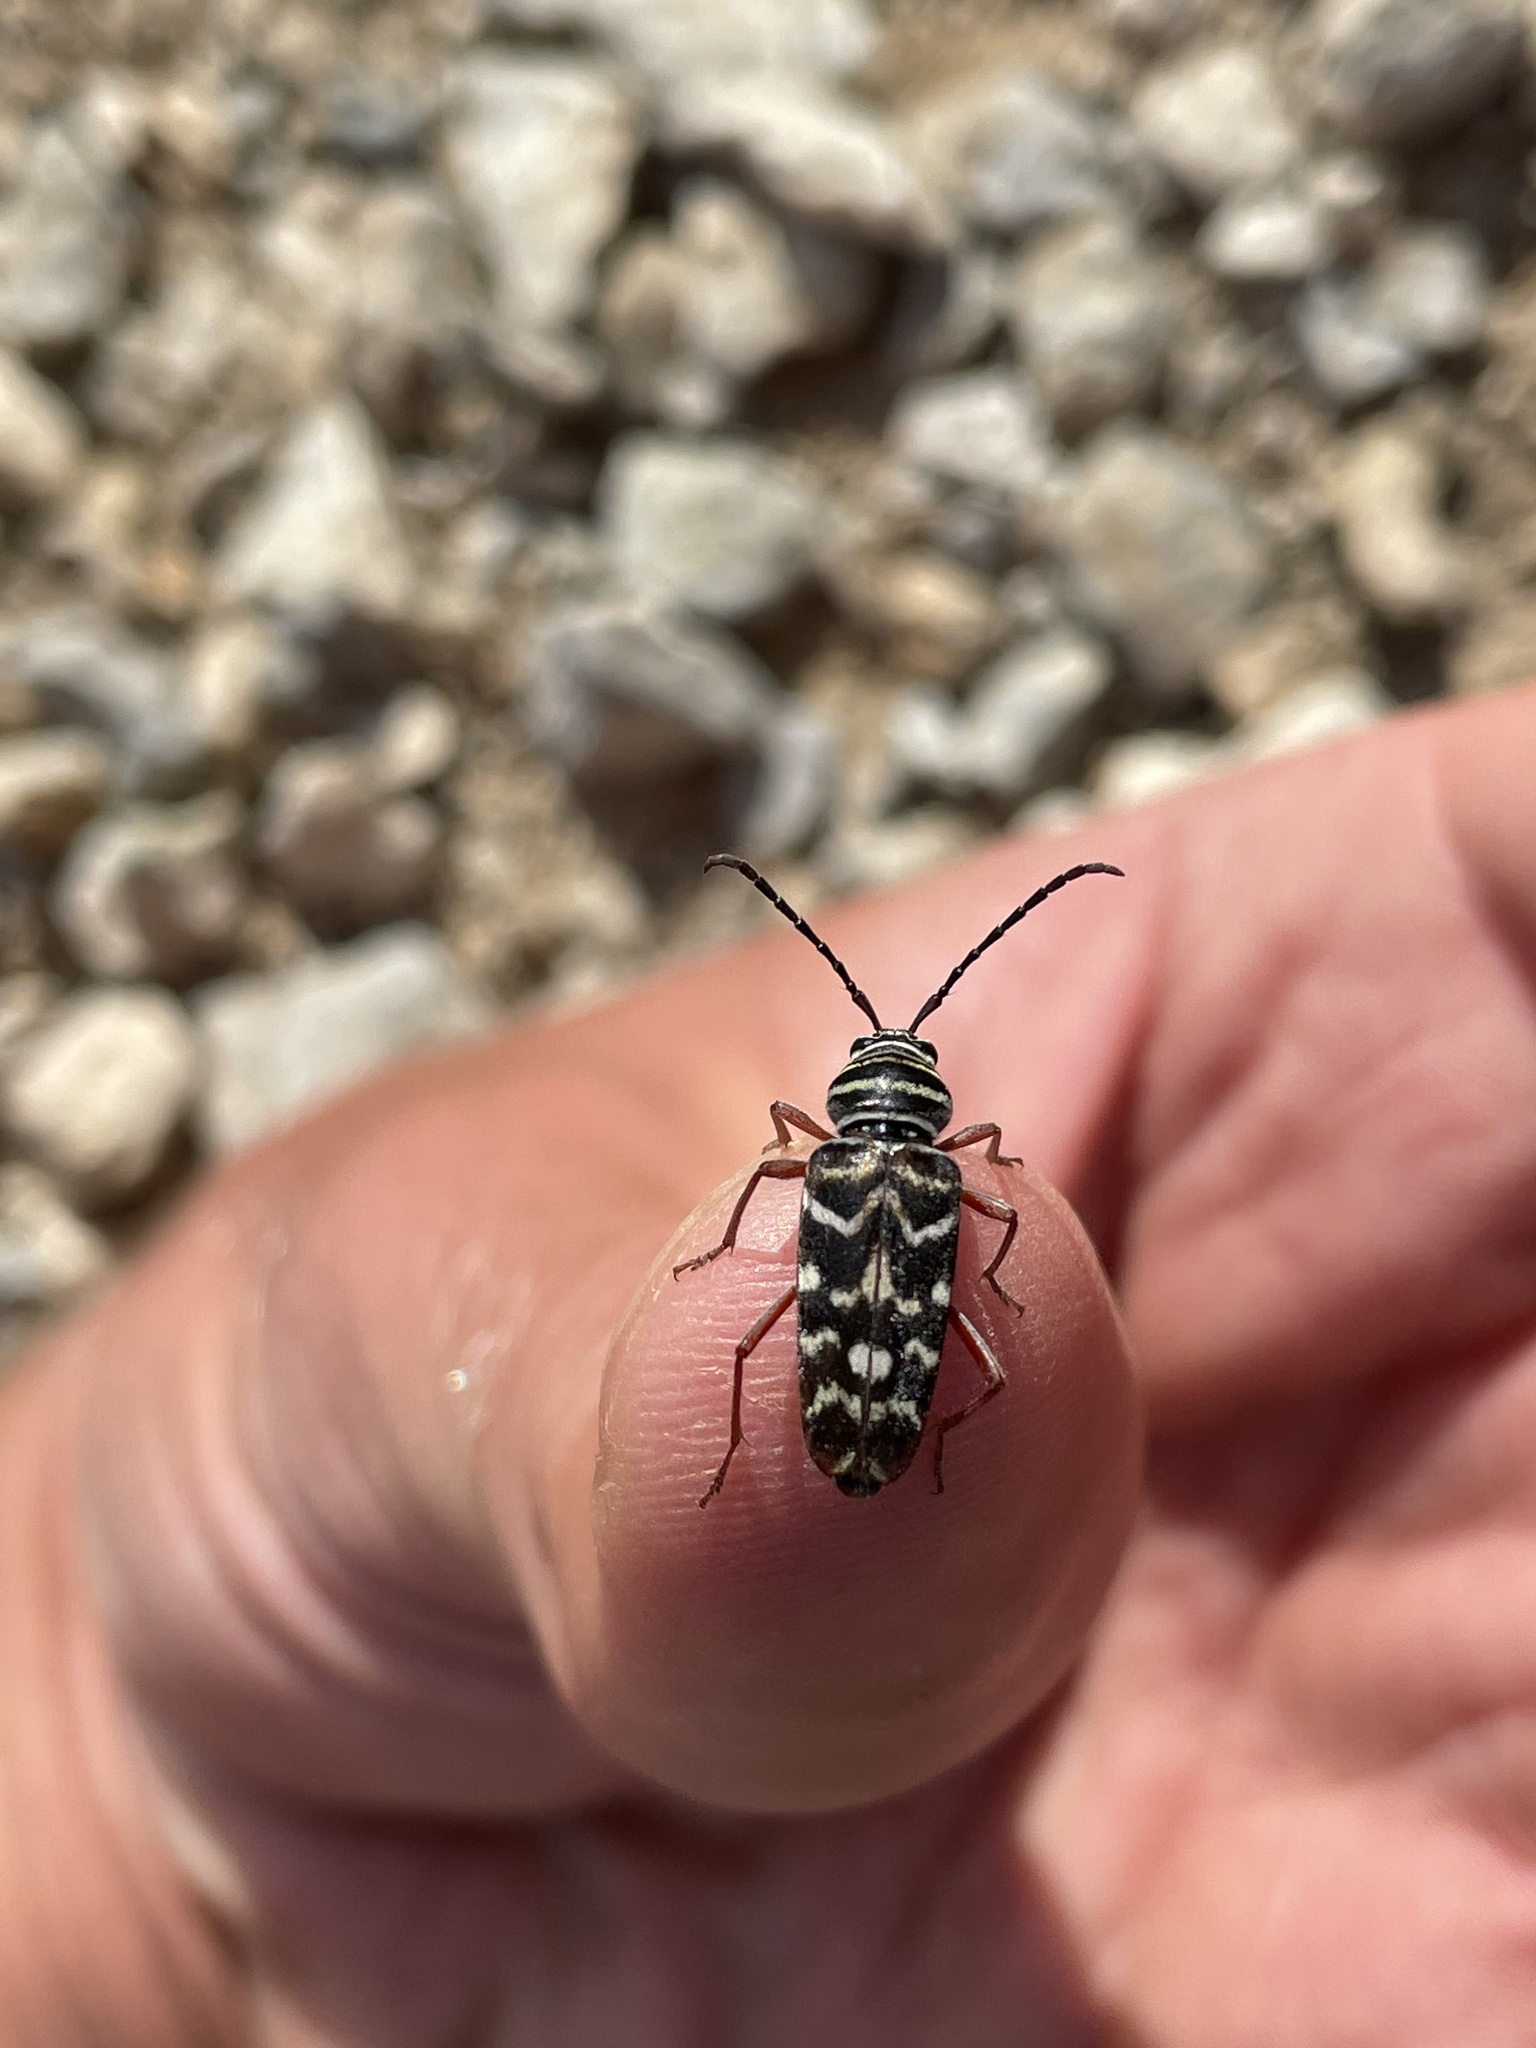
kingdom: Animalia
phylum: Arthropoda
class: Insecta
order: Coleoptera
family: Cerambycidae
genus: Megacyllene
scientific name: Megacyllene caryae
